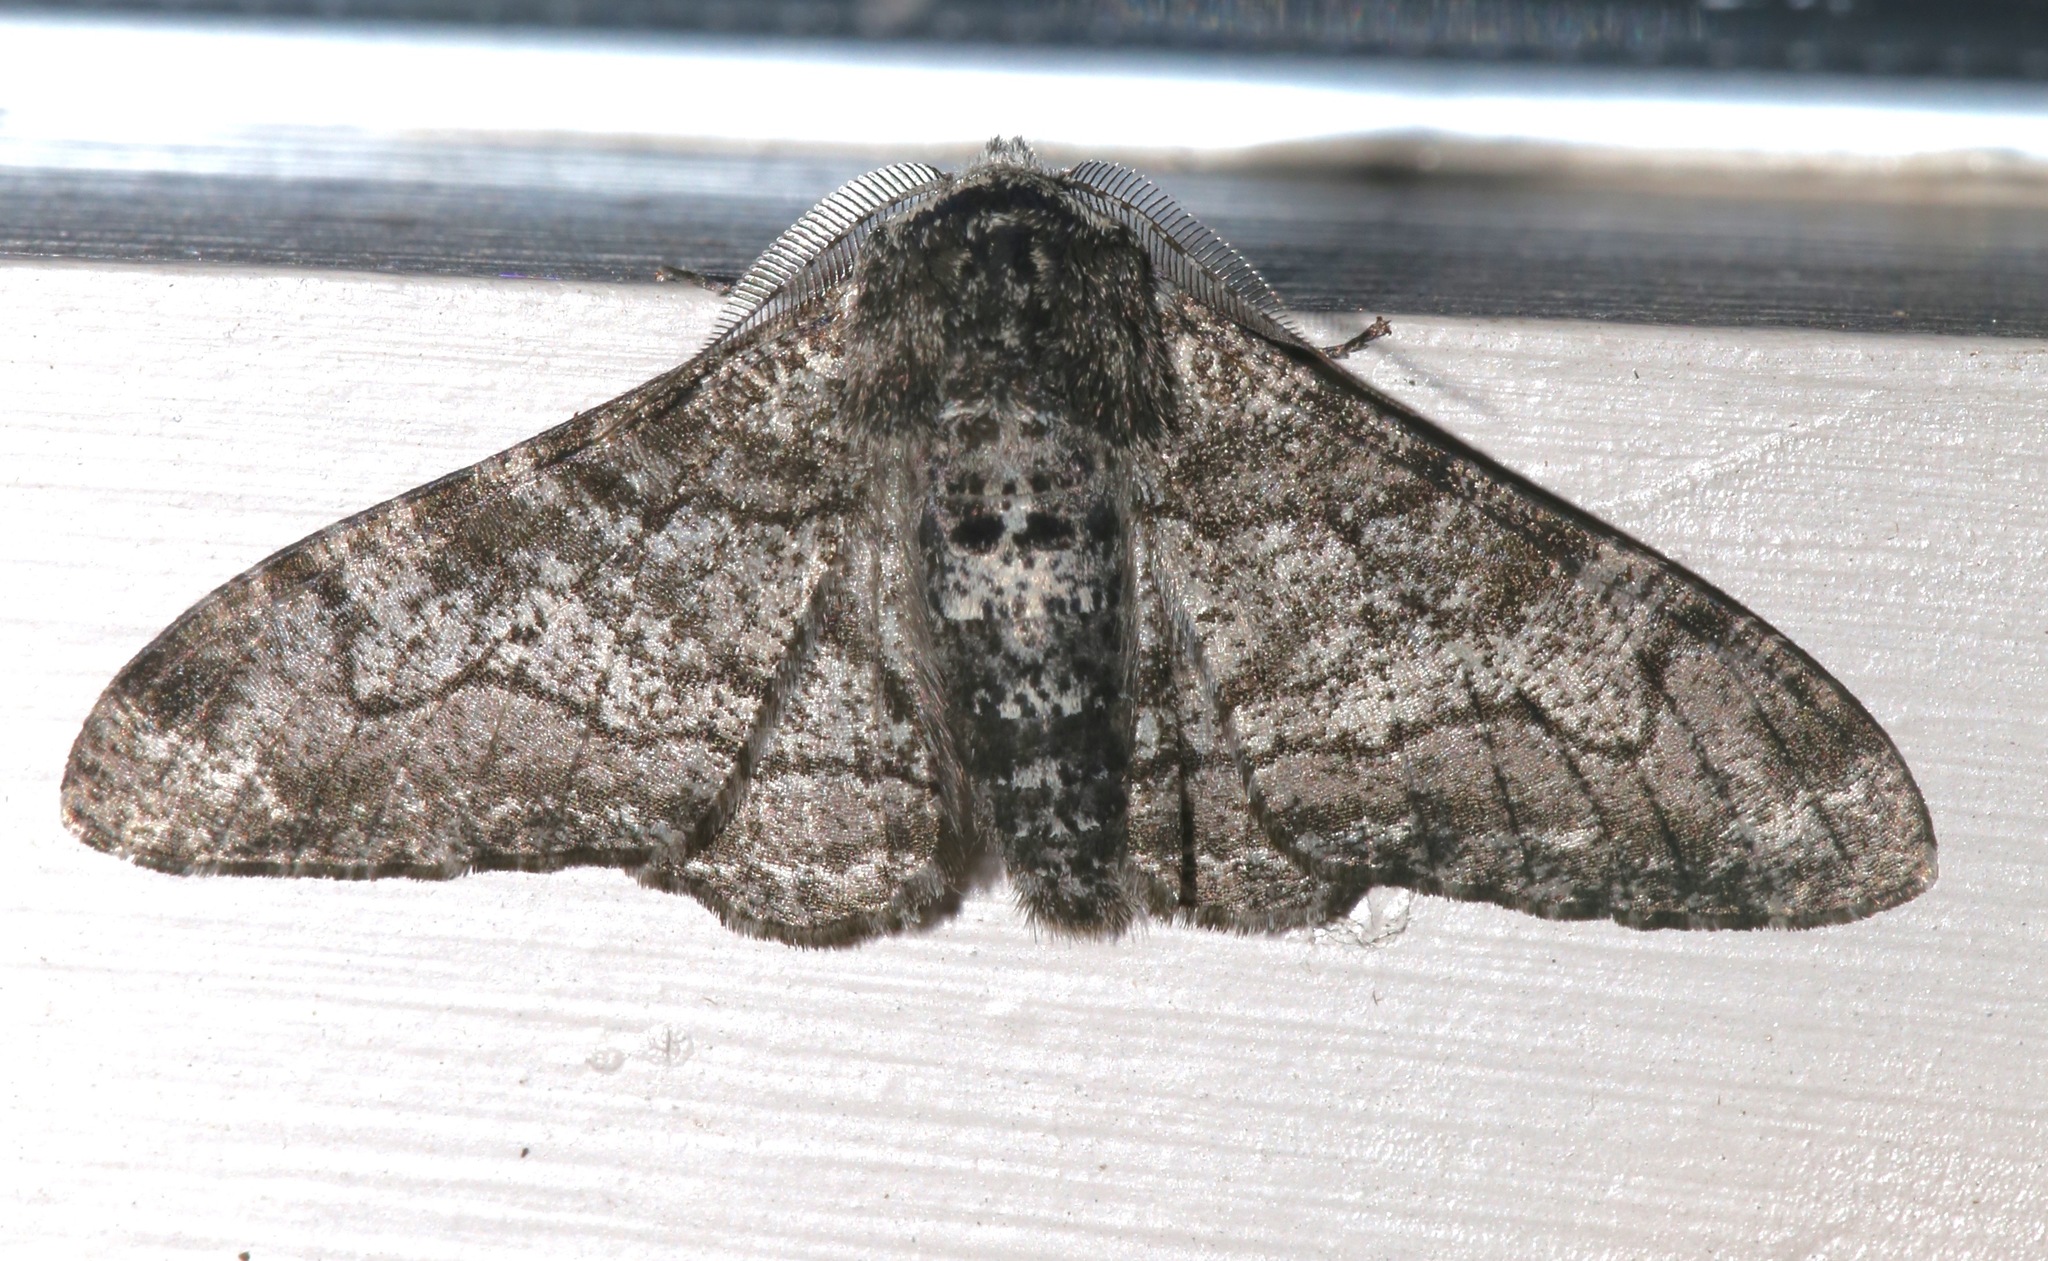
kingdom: Animalia
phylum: Arthropoda
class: Insecta
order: Lepidoptera
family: Geometridae
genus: Biston
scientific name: Biston betularia
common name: Peppered moth
